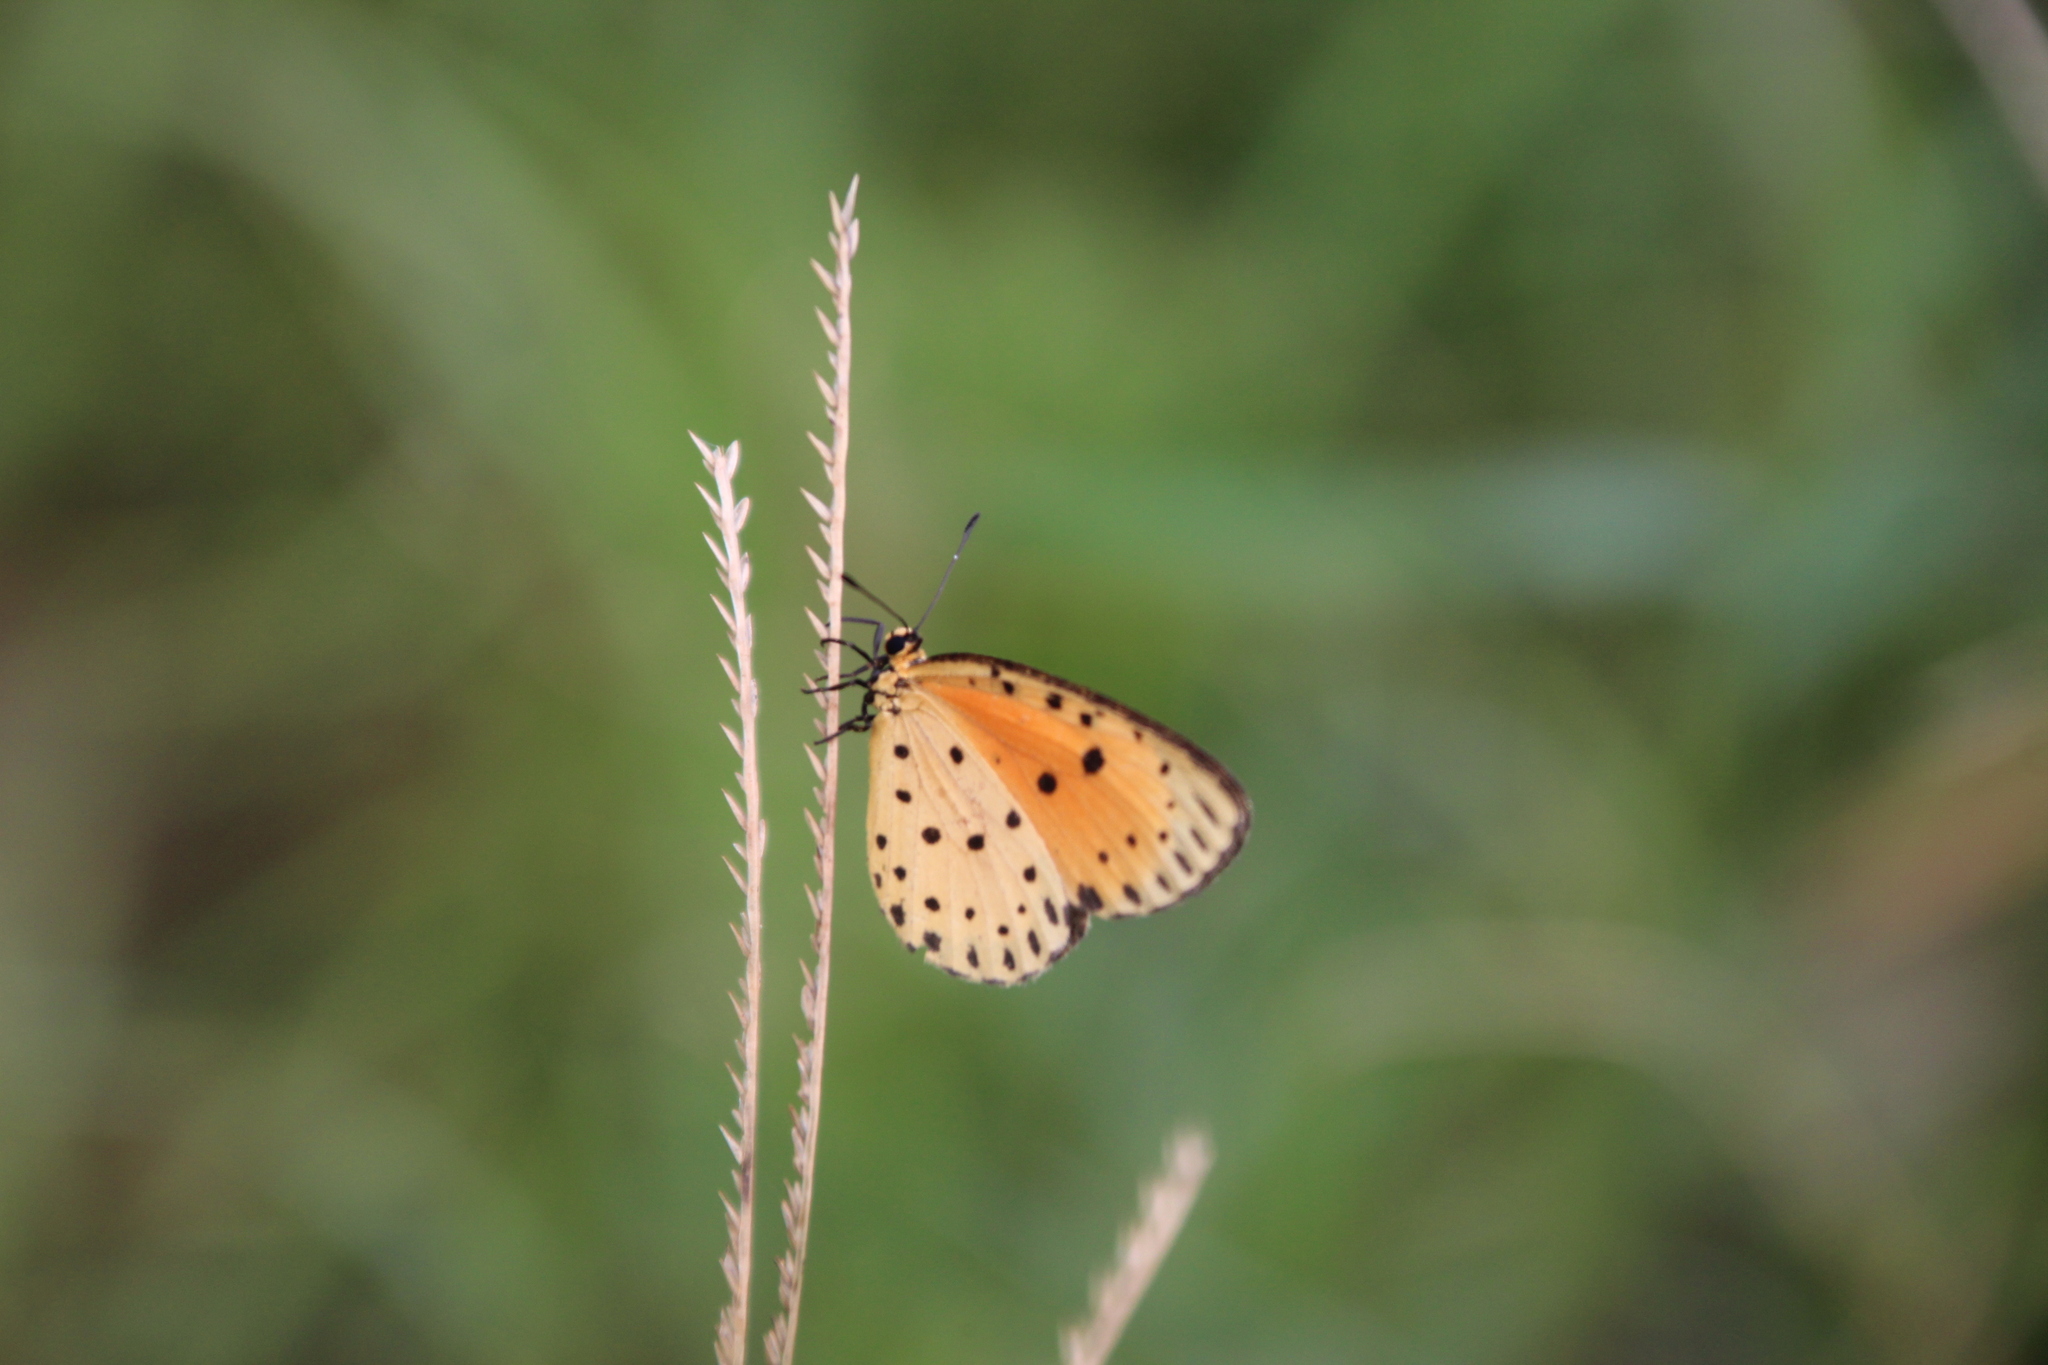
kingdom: Animalia
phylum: Arthropoda
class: Insecta
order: Lepidoptera
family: Lycaenidae
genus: Pentila
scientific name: Pentila pauli
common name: Paul's pentila
